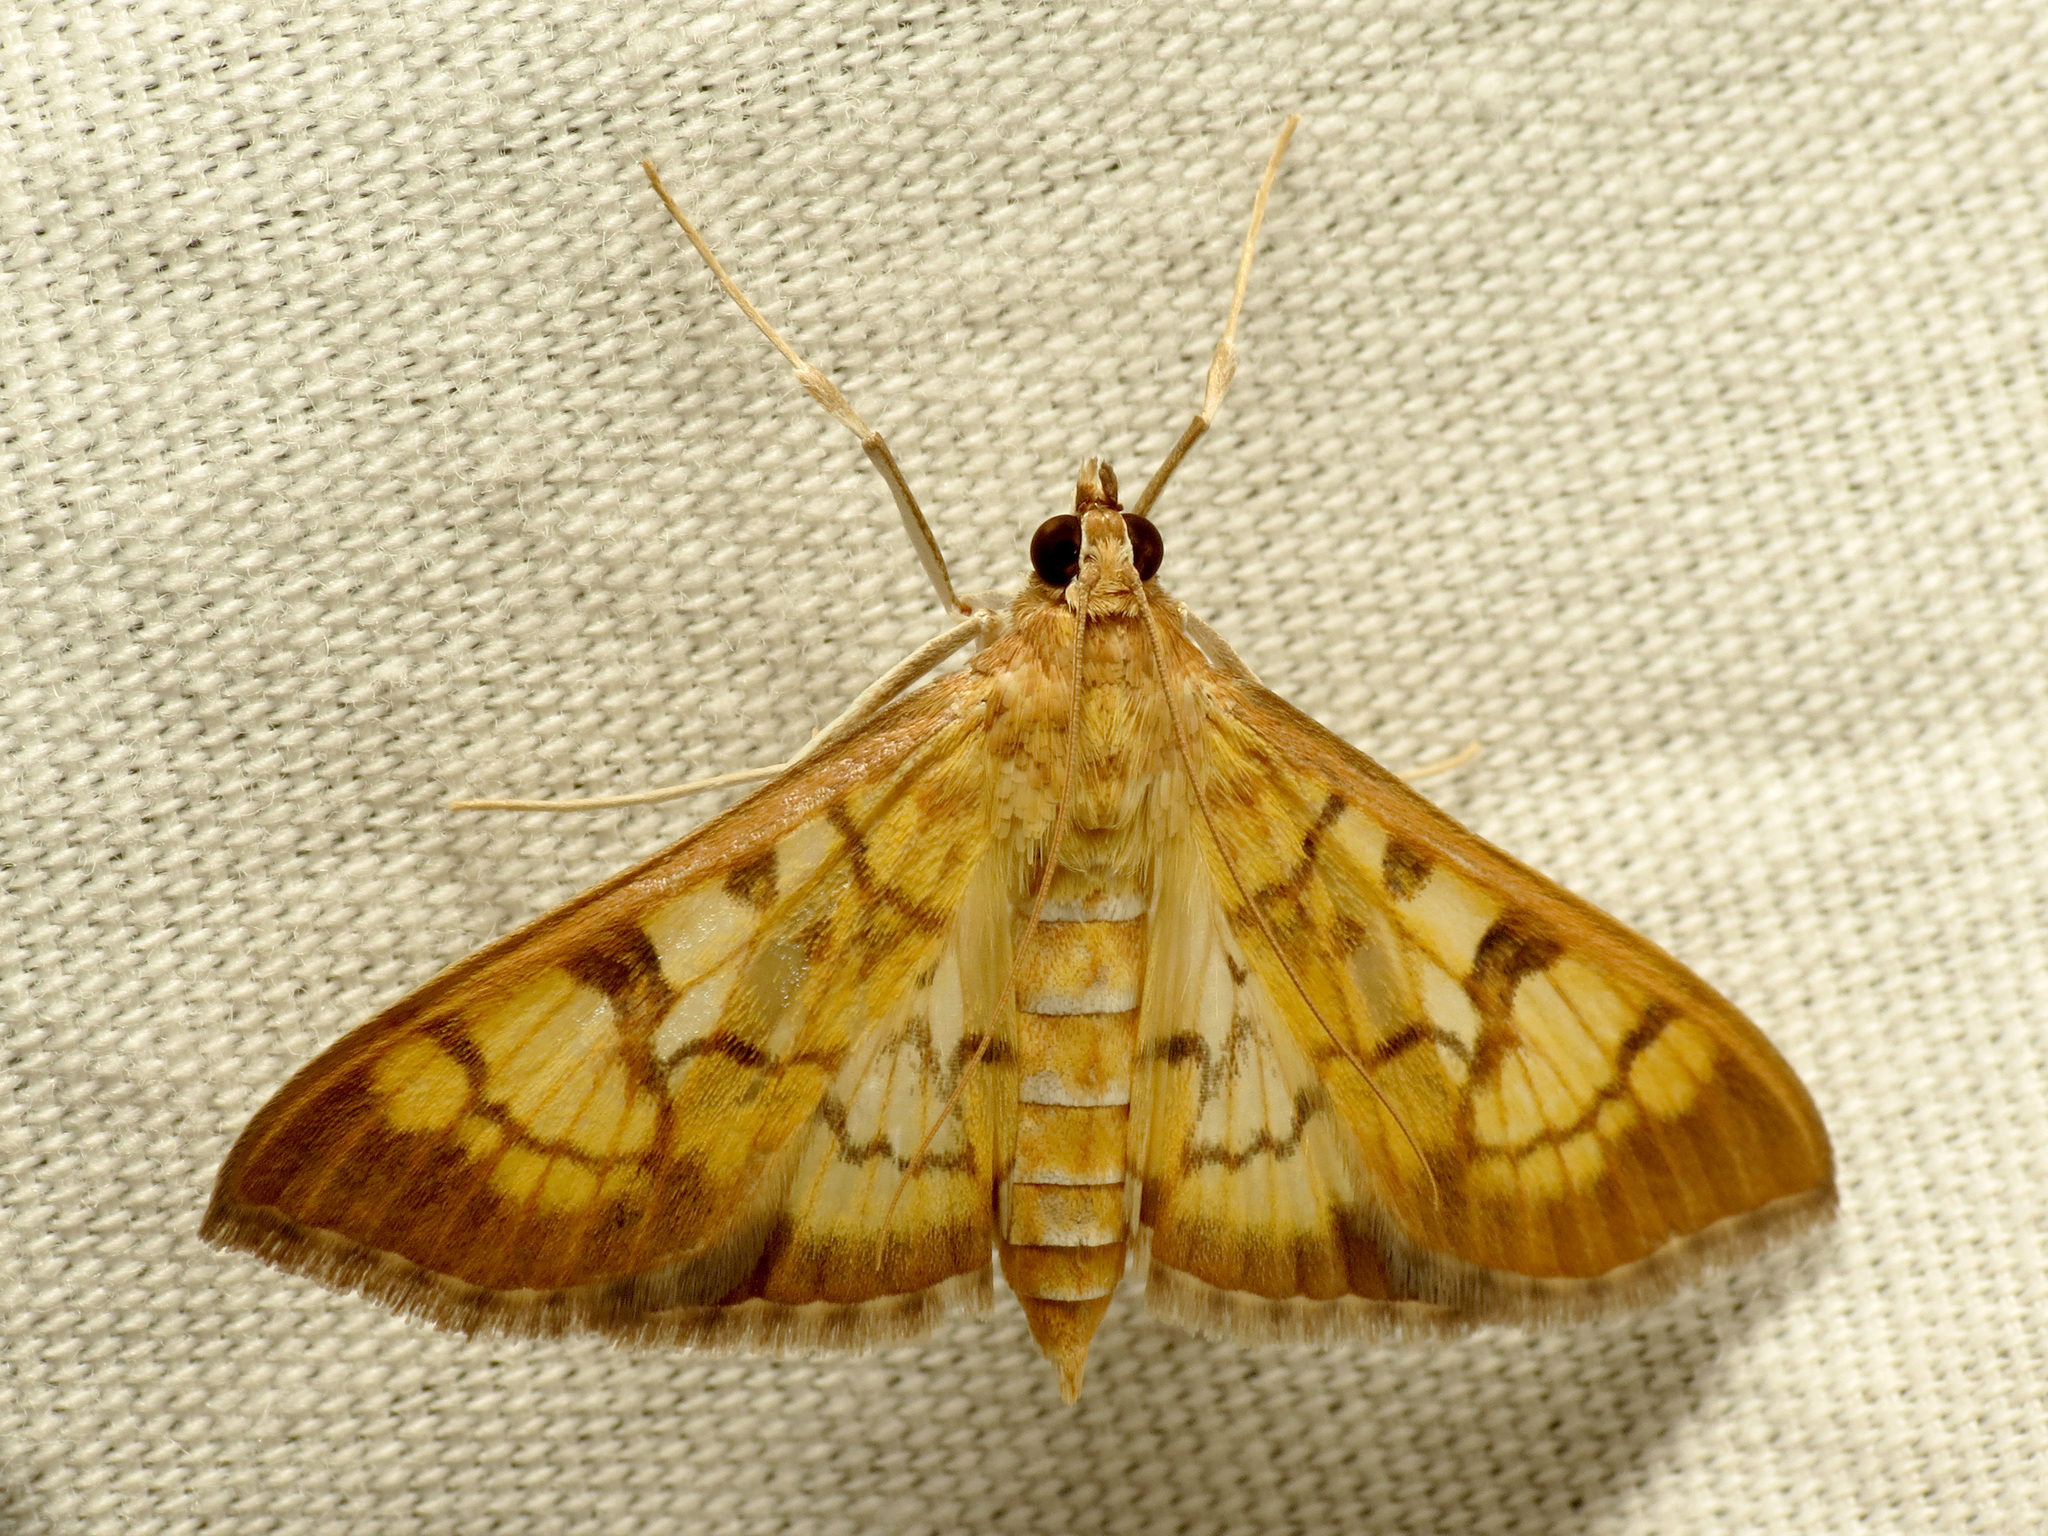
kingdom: Animalia
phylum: Arthropoda
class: Insecta
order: Lepidoptera
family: Crambidae
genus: Mimorista
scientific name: Mimorista subcostalis
